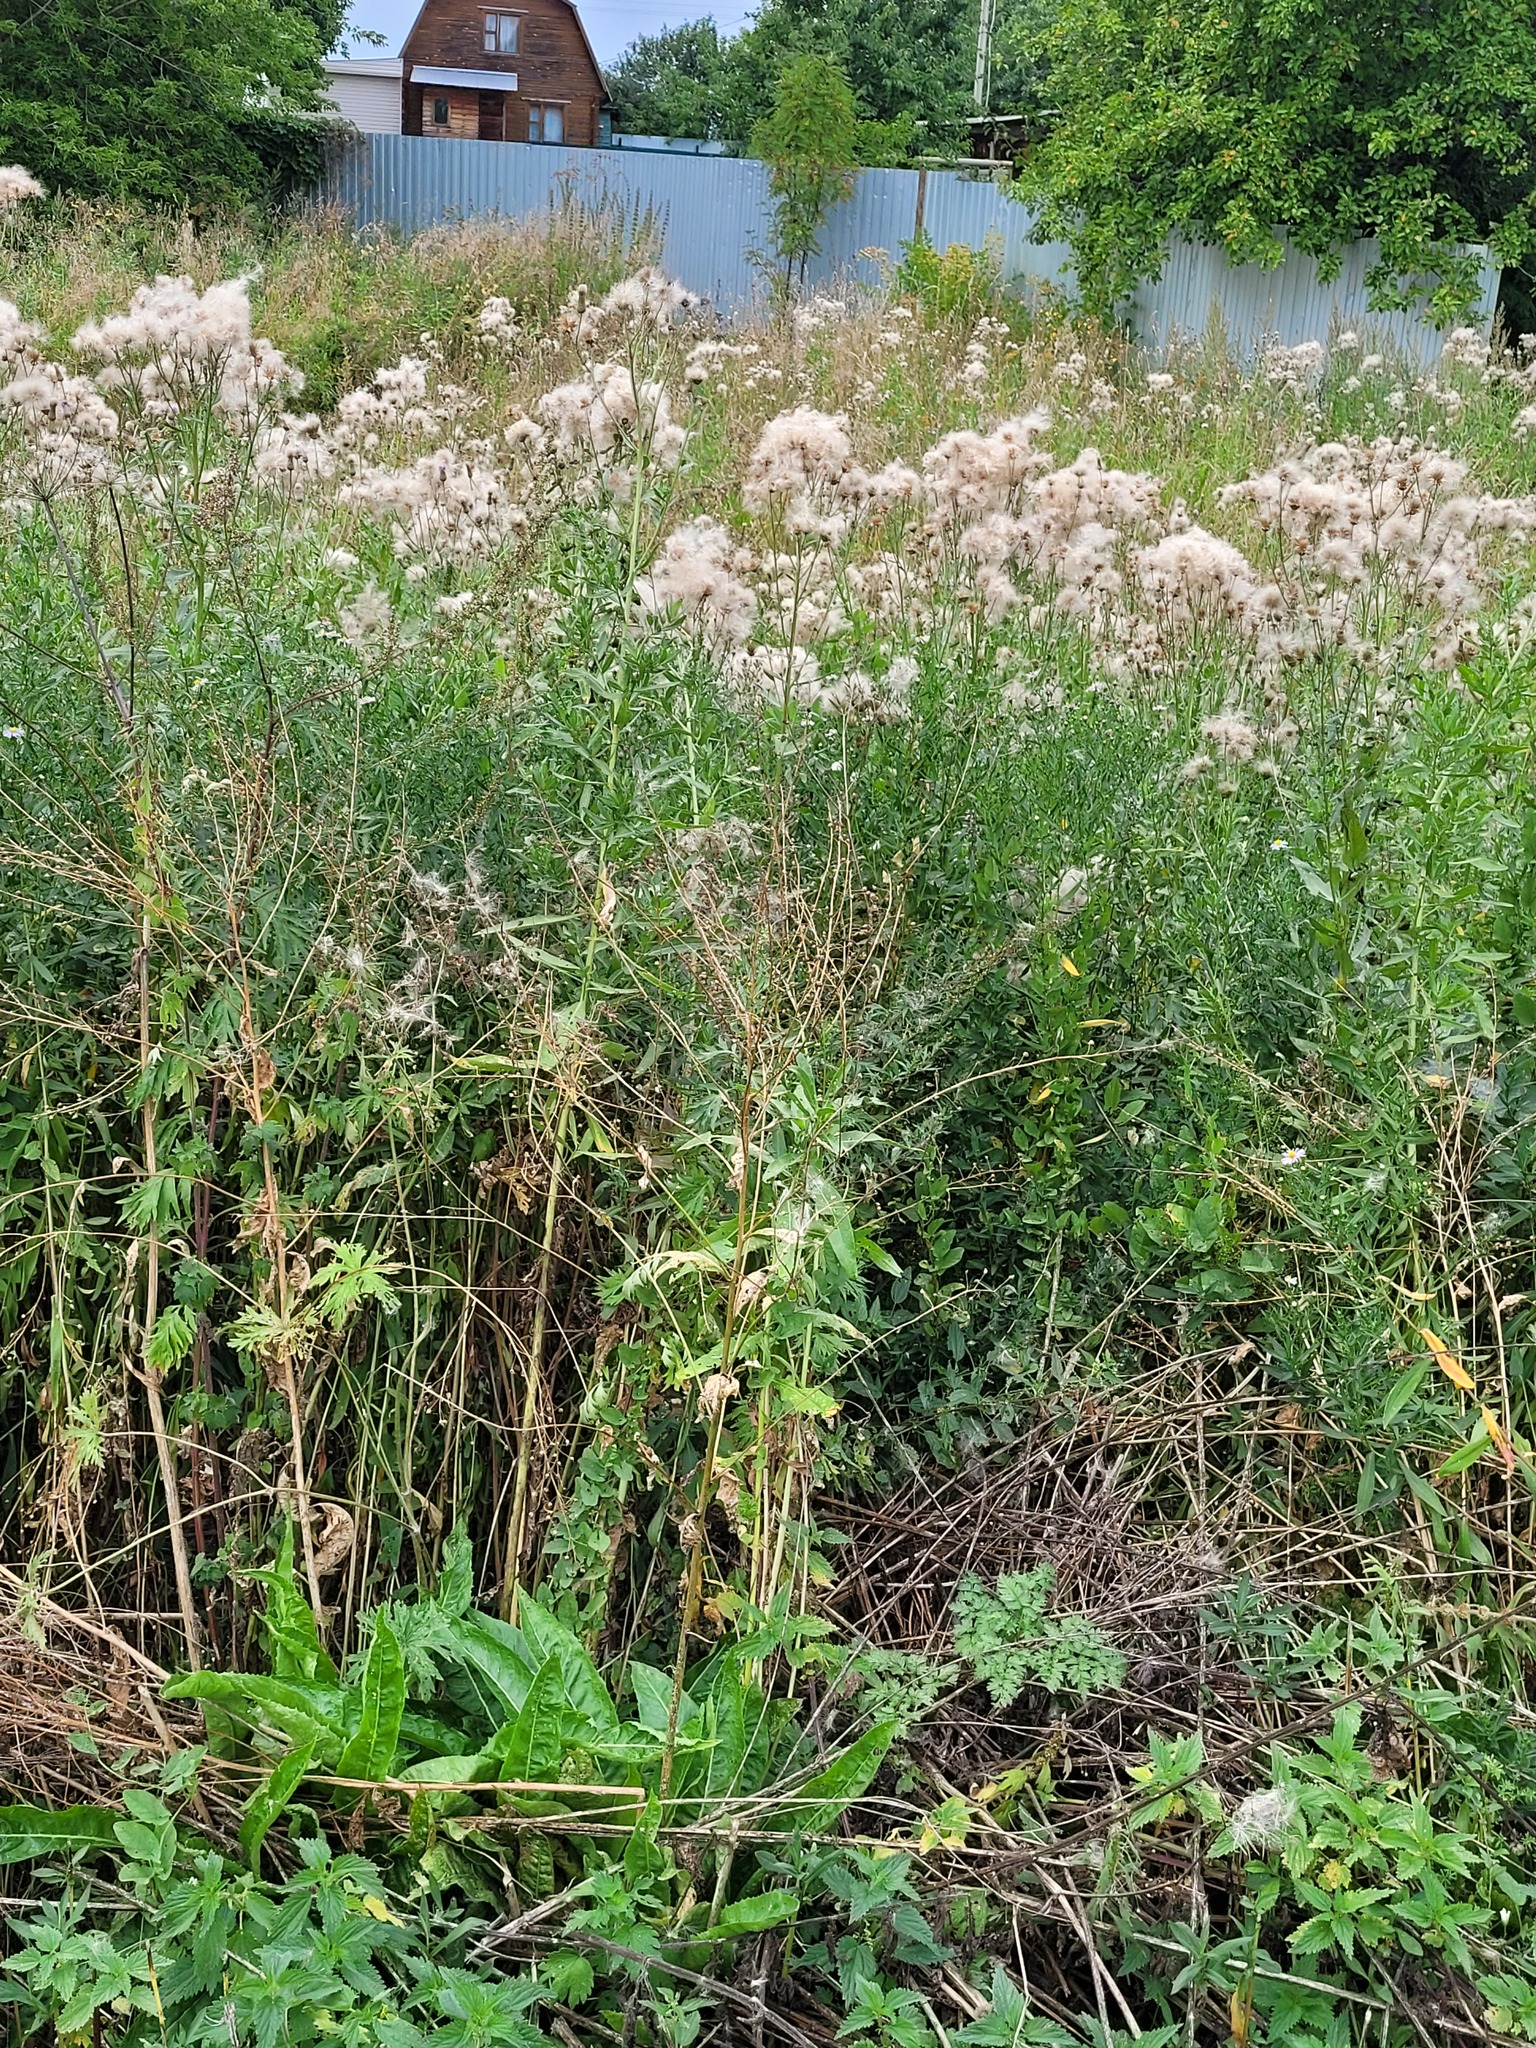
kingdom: Plantae
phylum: Tracheophyta
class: Magnoliopsida
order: Brassicales
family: Brassicaceae
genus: Bunias
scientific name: Bunias orientalis
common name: Warty-cabbage
